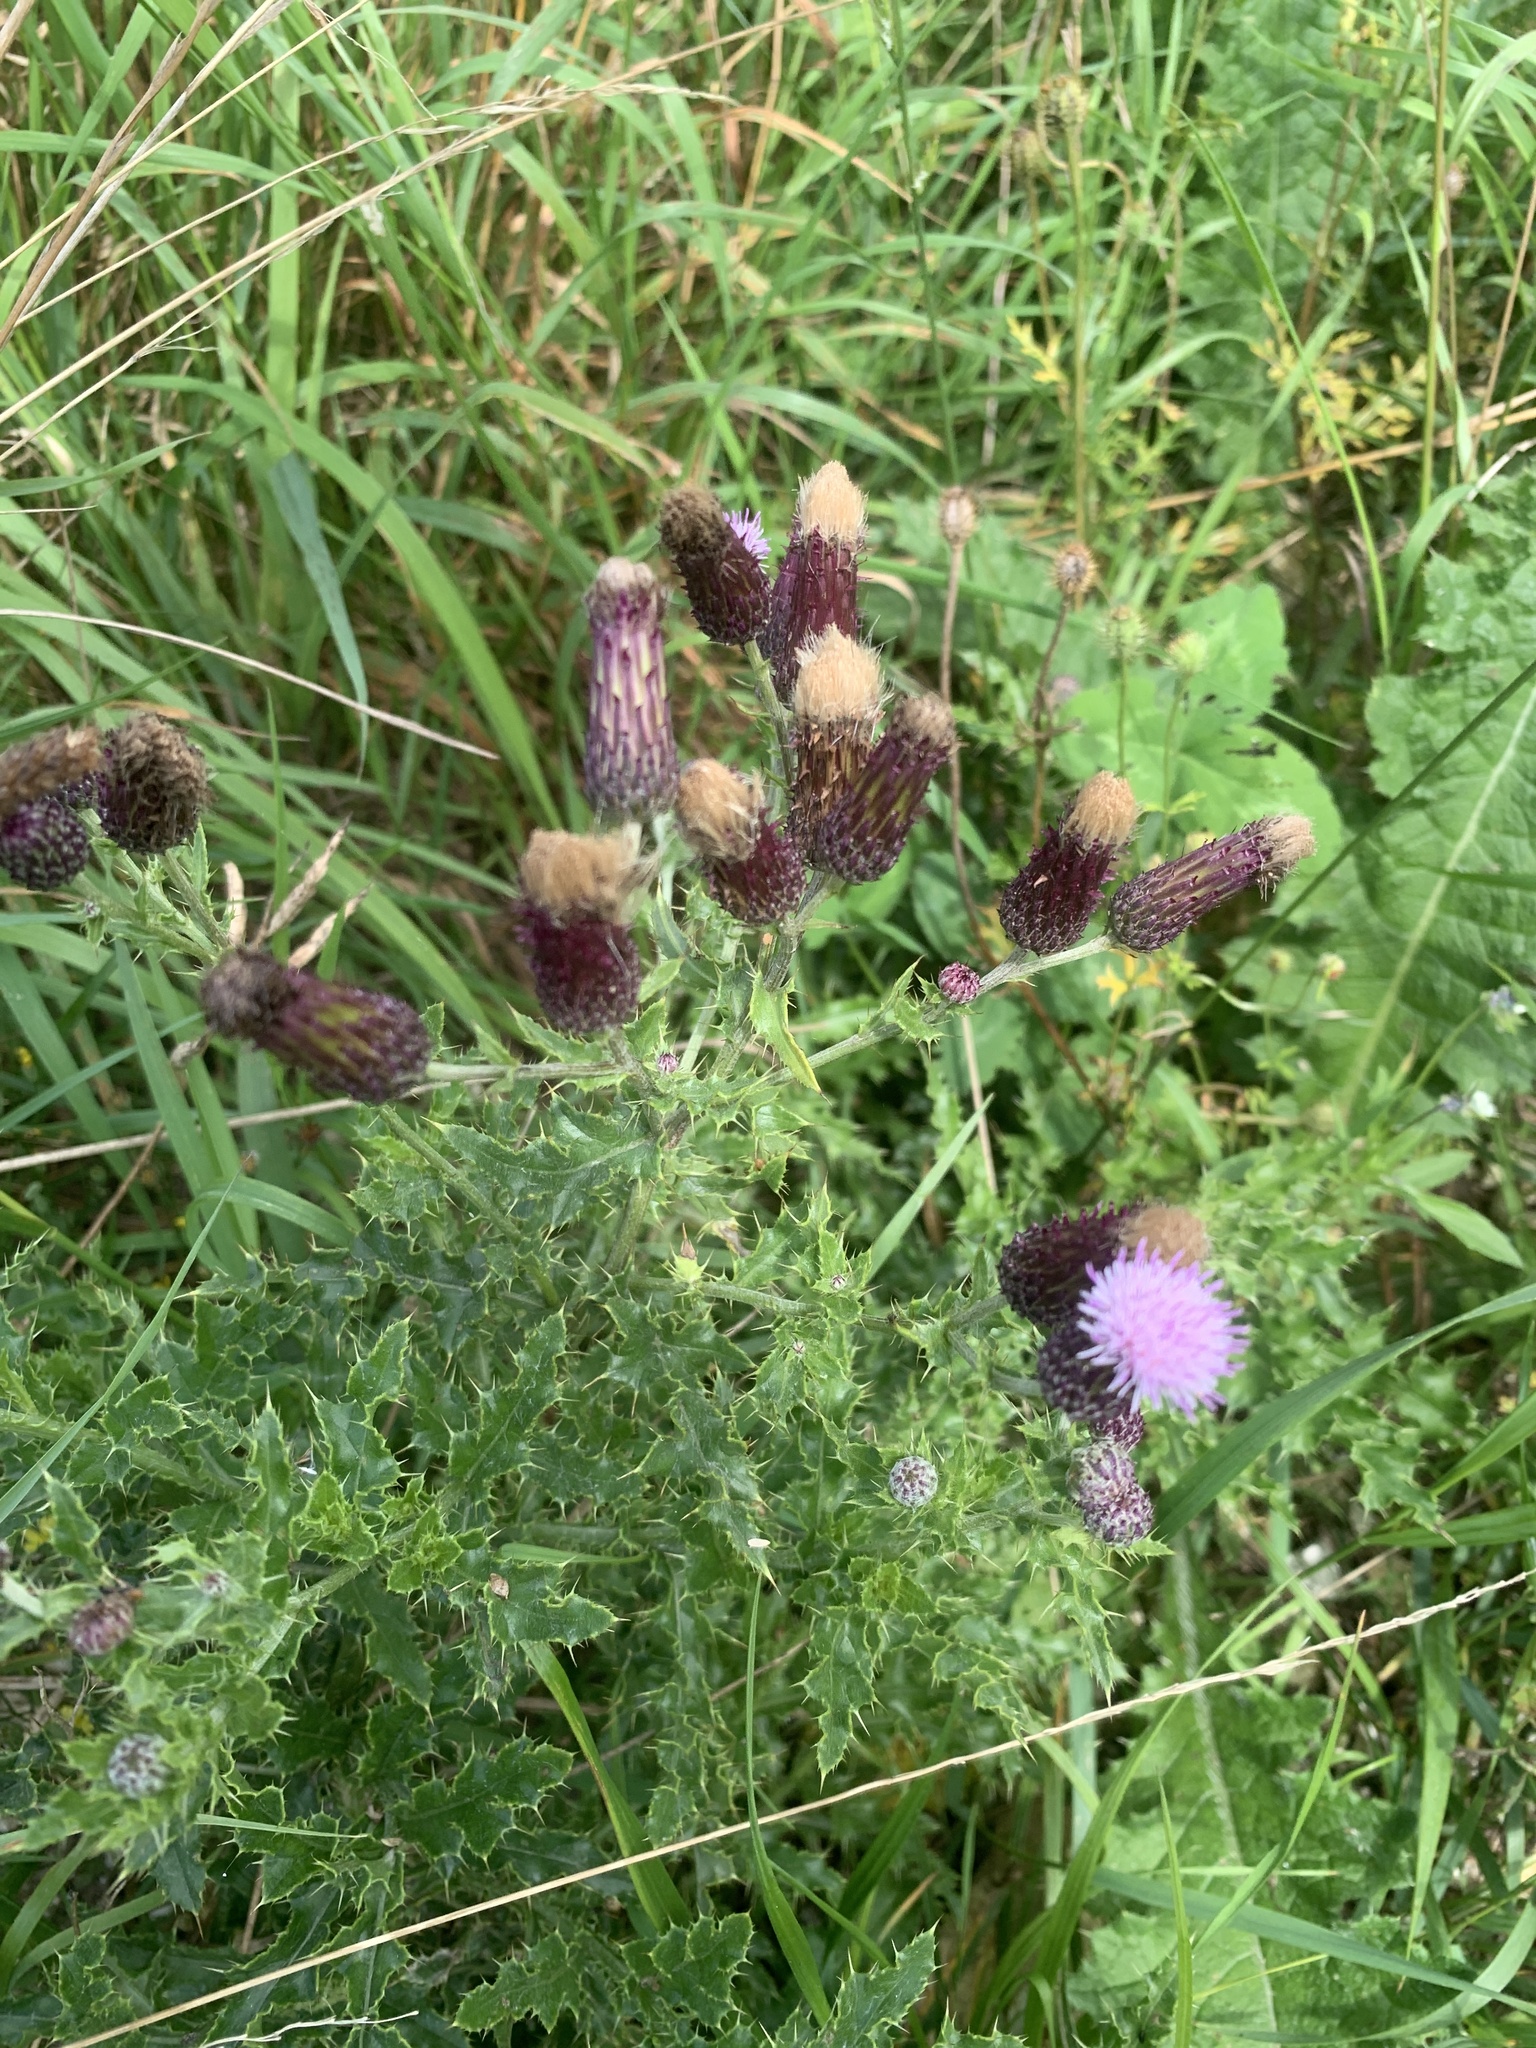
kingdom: Plantae
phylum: Tracheophyta
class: Magnoliopsida
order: Asterales
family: Asteraceae
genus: Cirsium
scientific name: Cirsium arvense
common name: Creeping thistle
